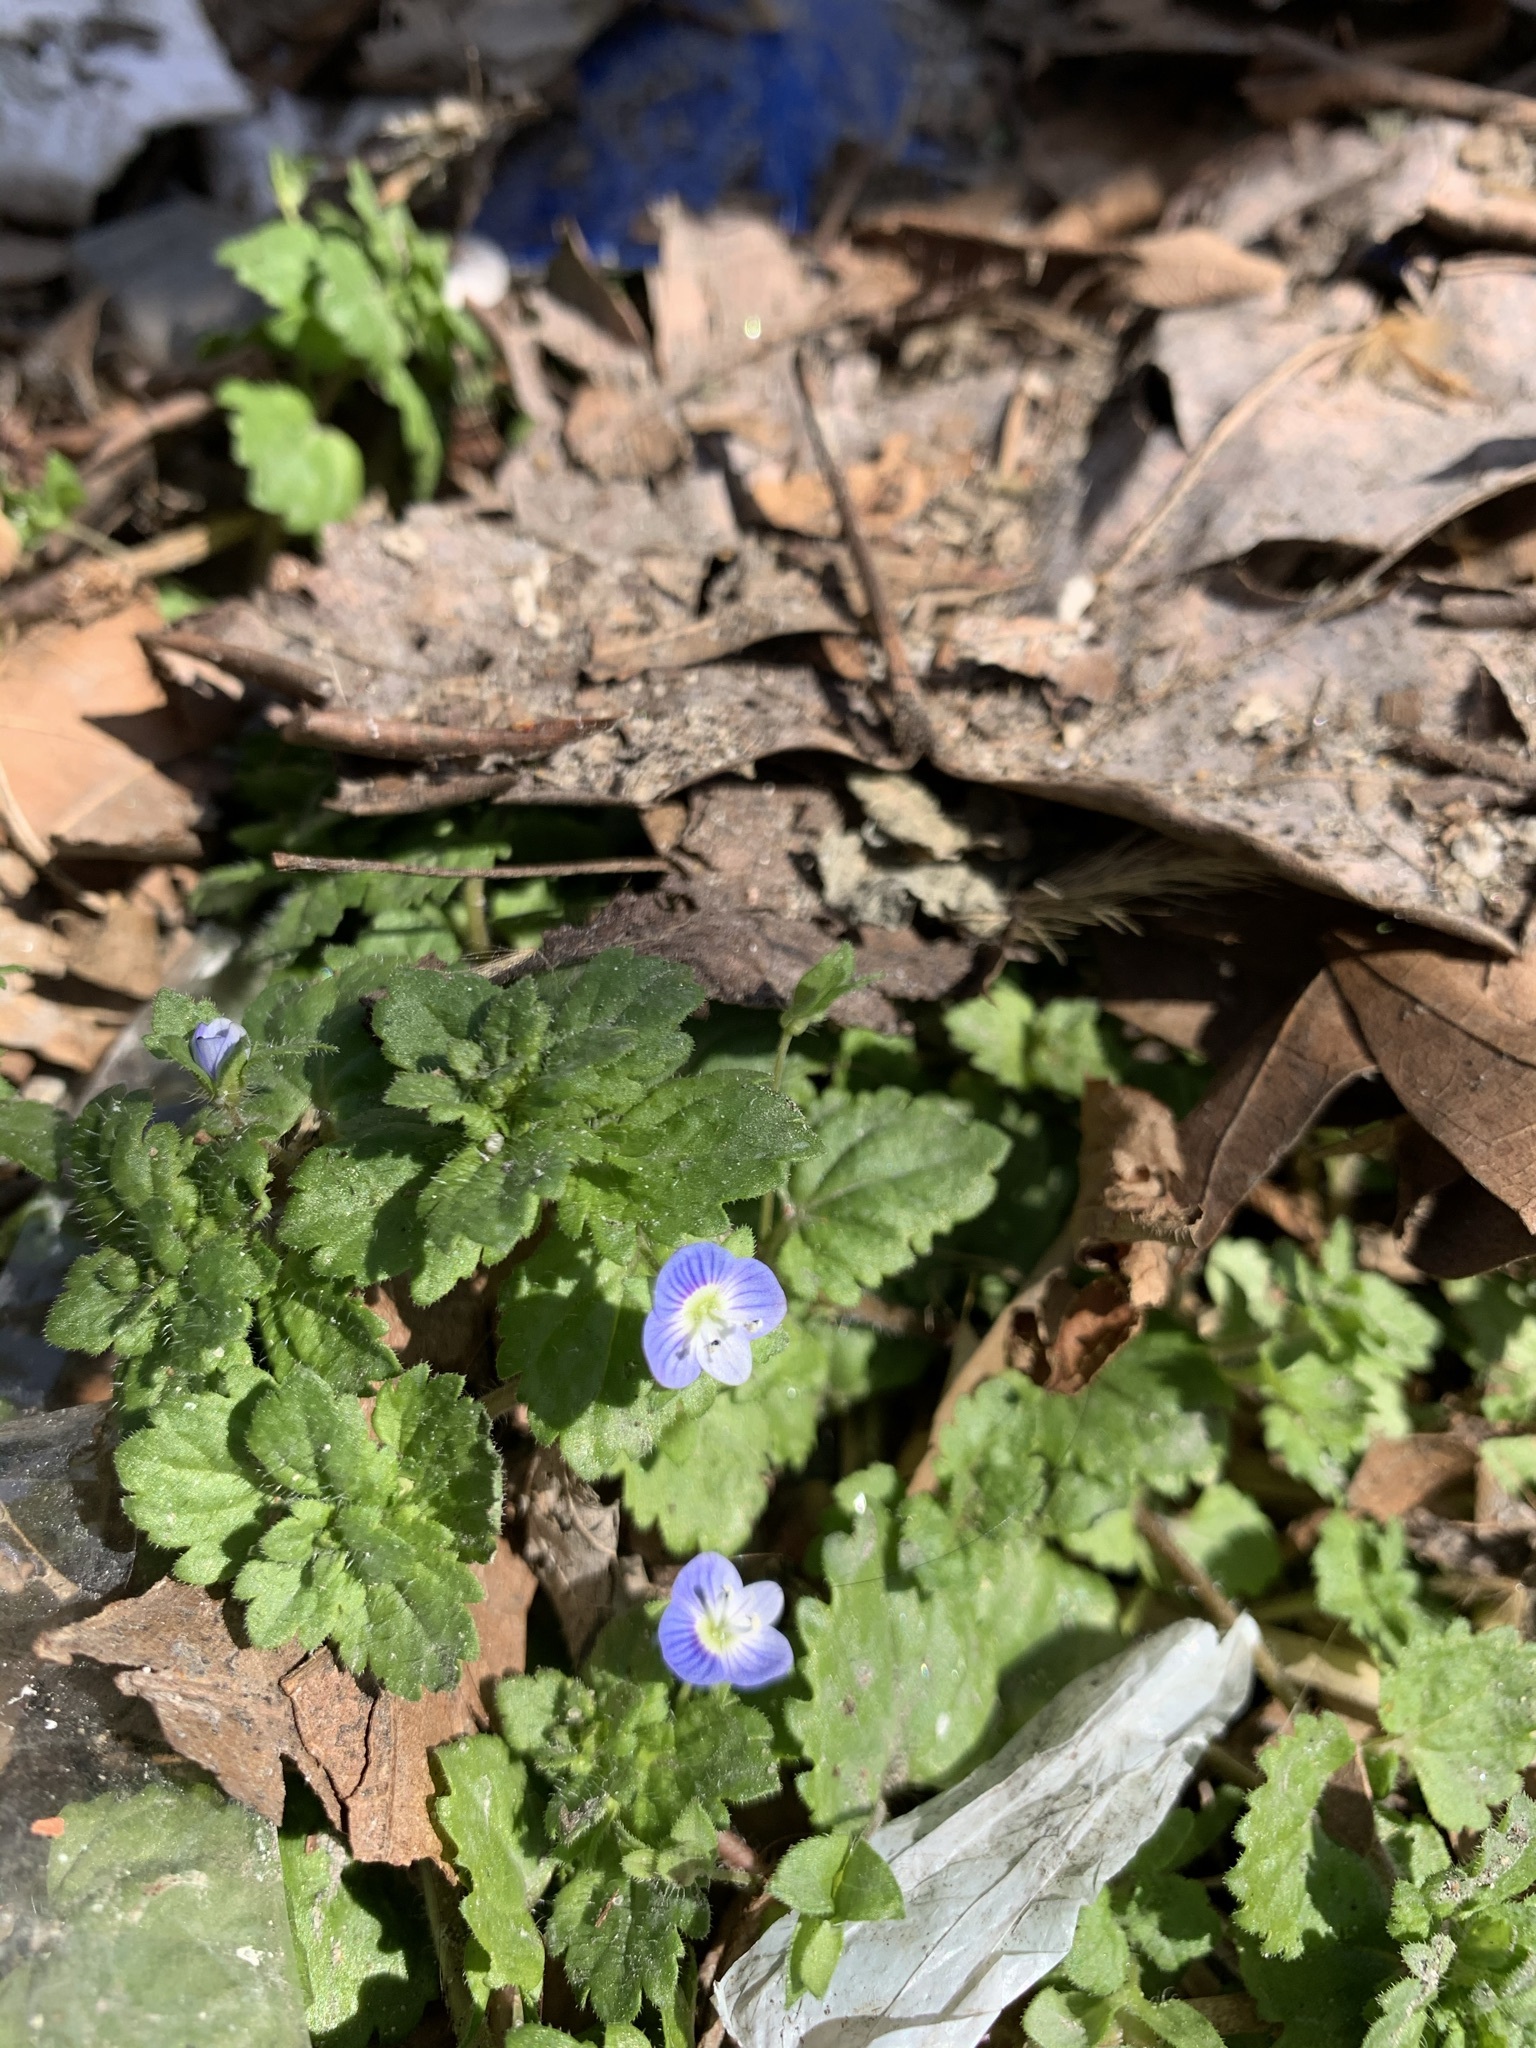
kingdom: Plantae
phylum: Tracheophyta
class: Magnoliopsida
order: Lamiales
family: Plantaginaceae
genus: Veronica
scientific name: Veronica persica
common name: Common field-speedwell
